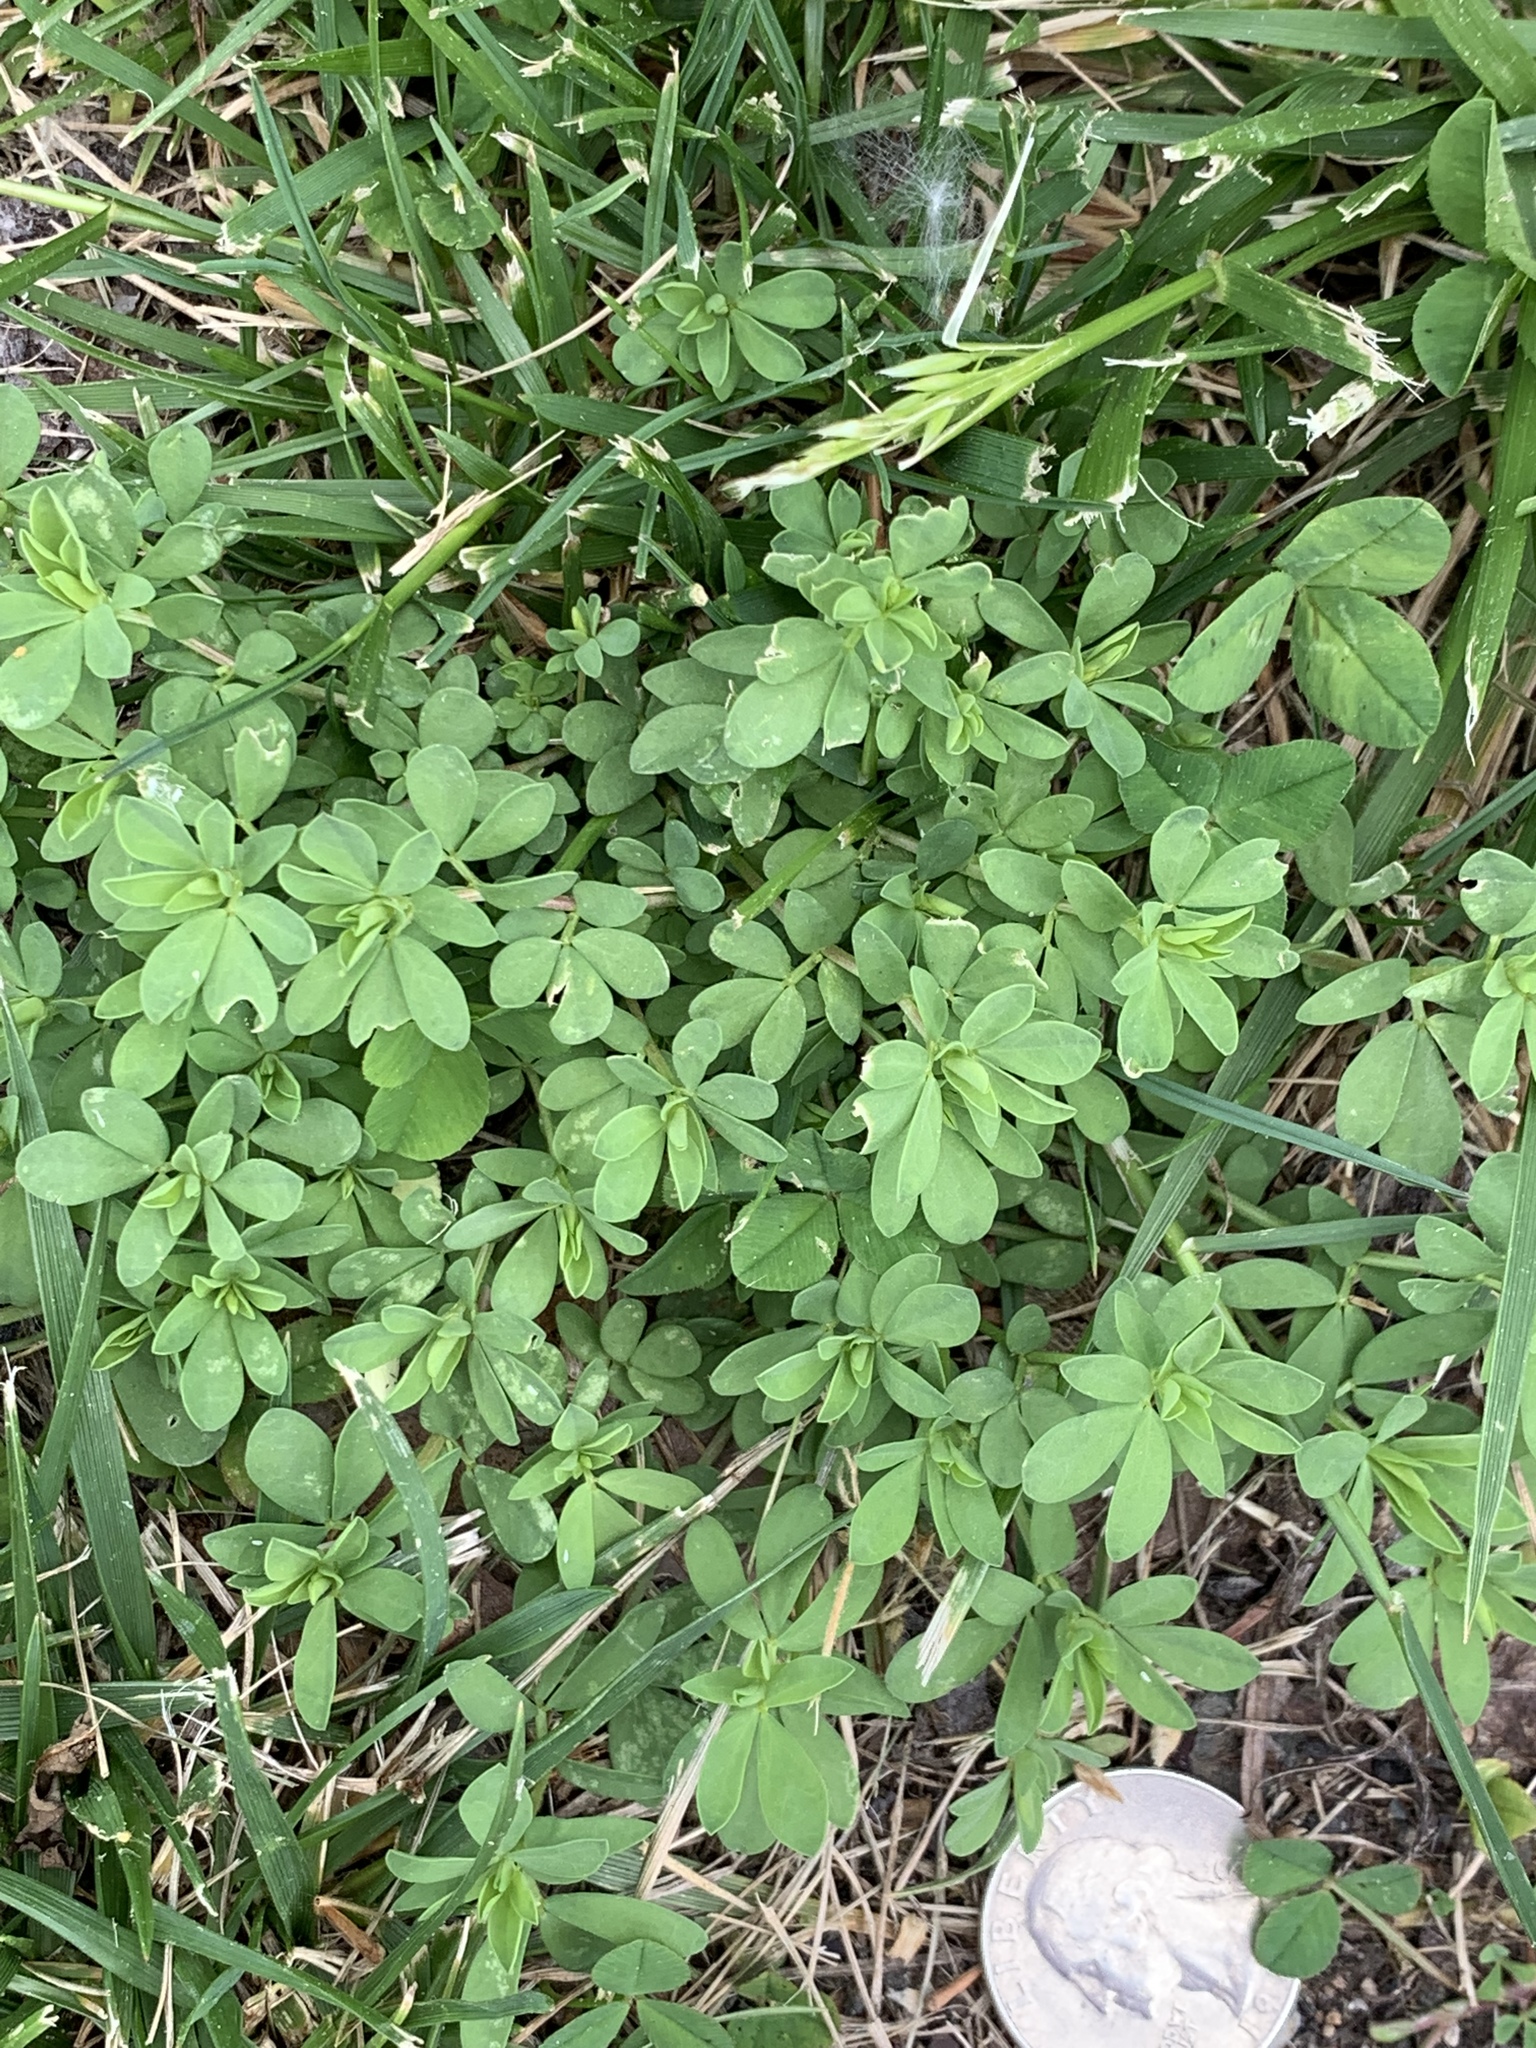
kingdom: Plantae
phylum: Tracheophyta
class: Magnoliopsida
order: Fabales
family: Fabaceae
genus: Lotus
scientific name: Lotus corniculatus
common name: Common bird's-foot-trefoil
